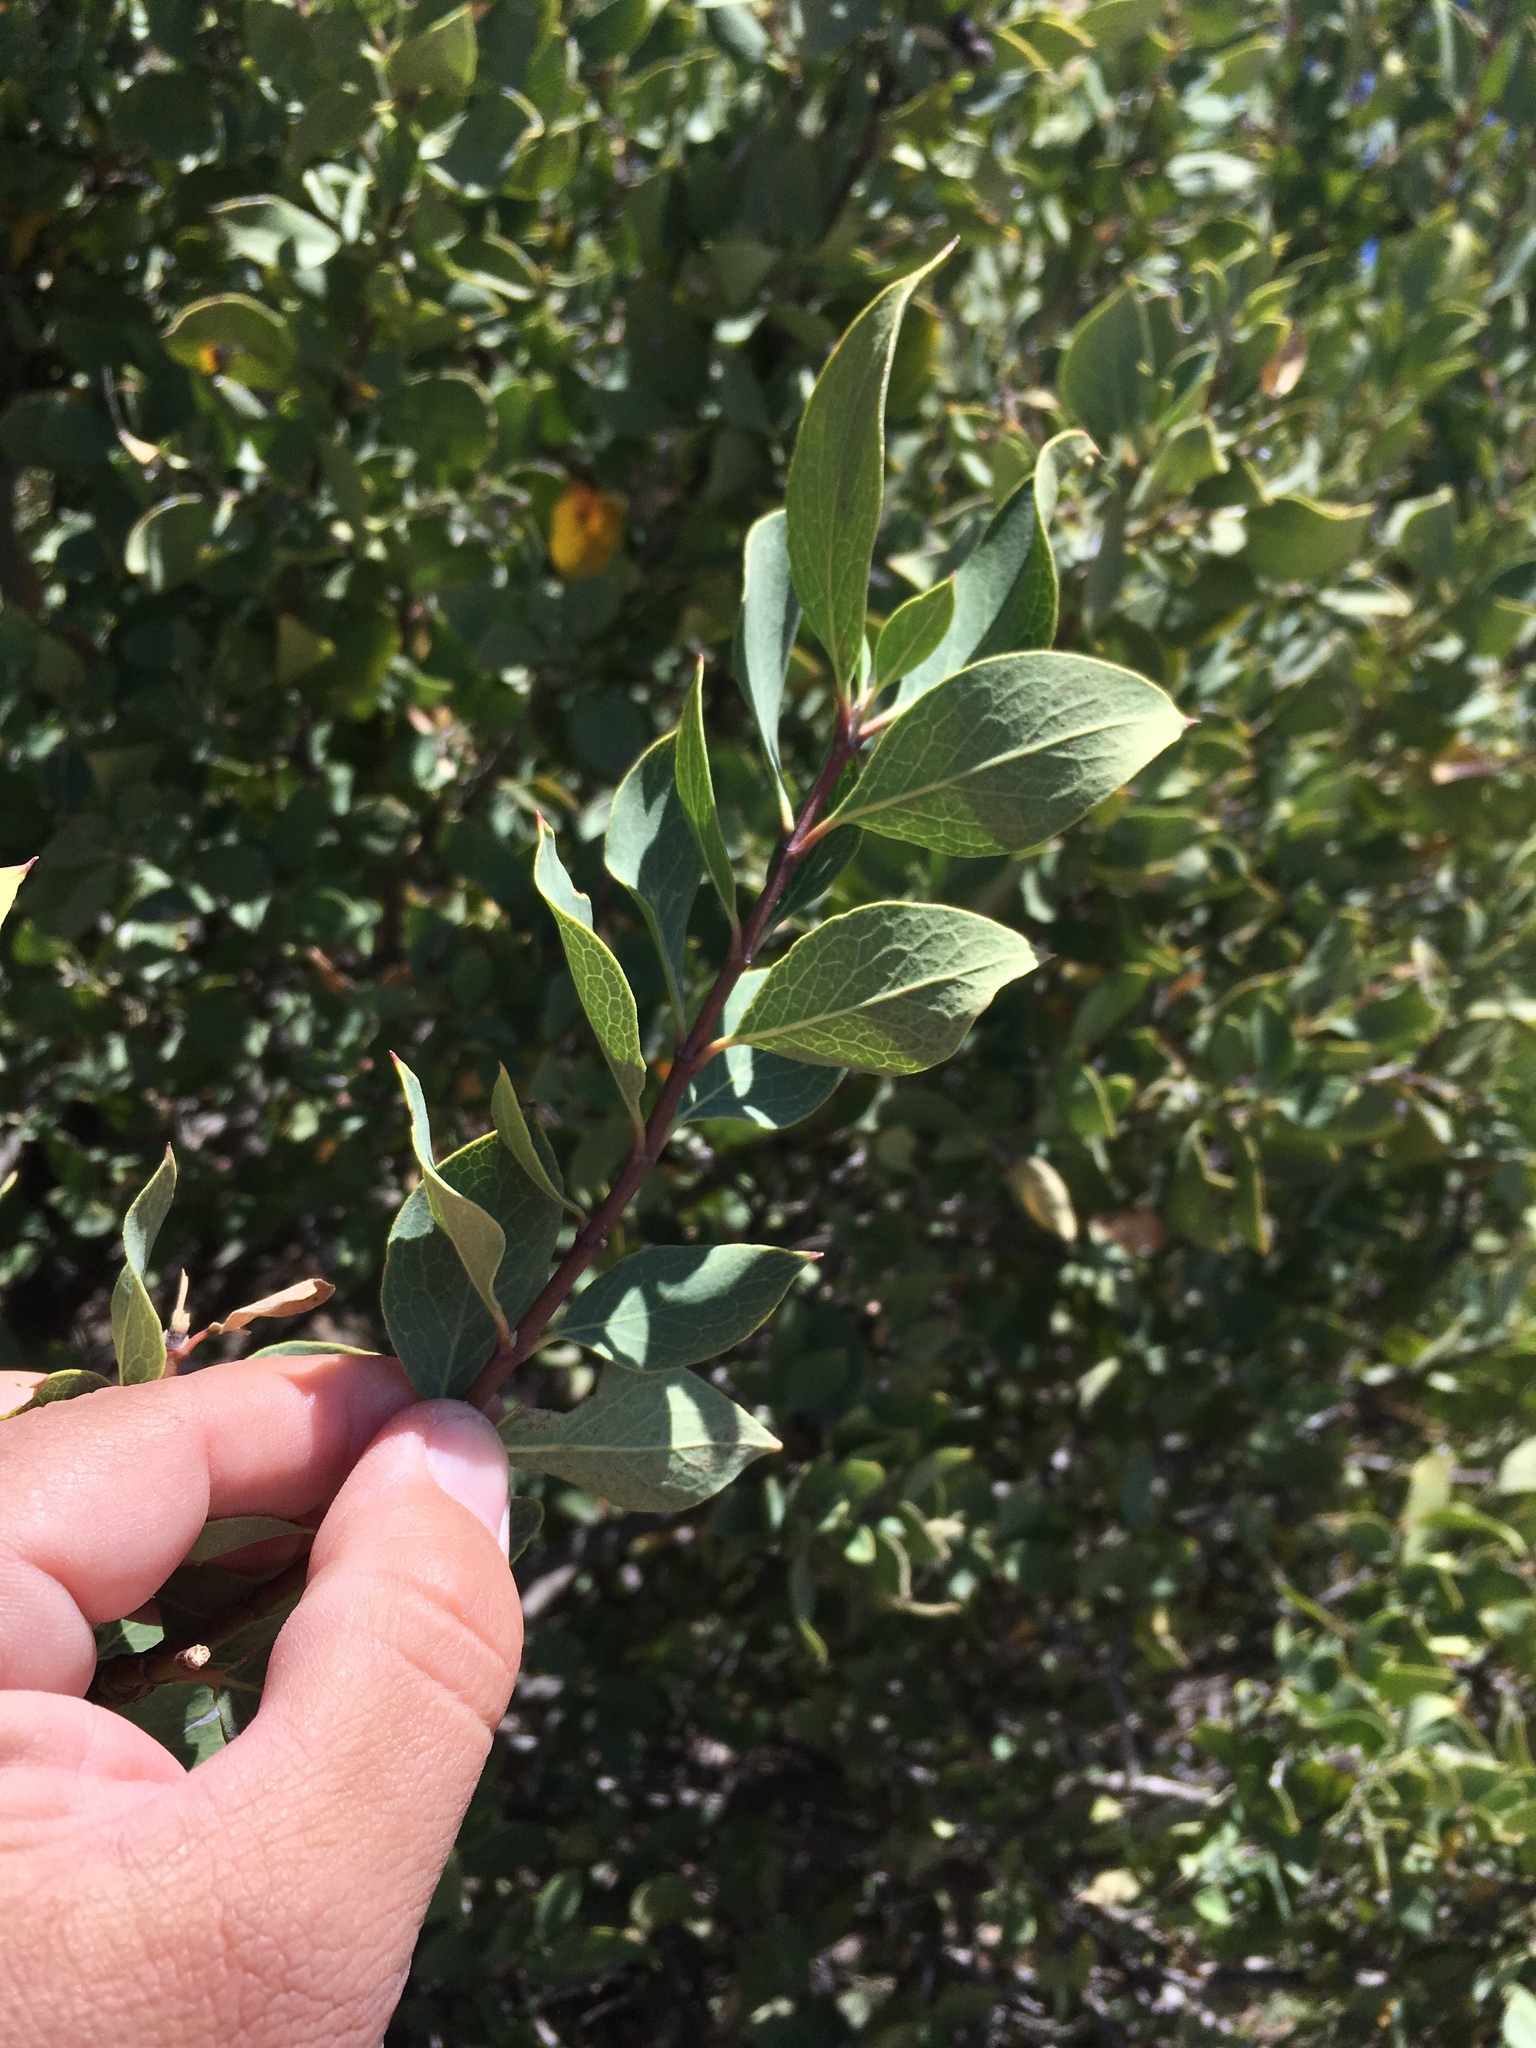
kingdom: Plantae
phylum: Tracheophyta
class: Magnoliopsida
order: Garryales
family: Garryaceae
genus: Garrya
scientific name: Garrya wrightii
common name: Wright's silktassel
